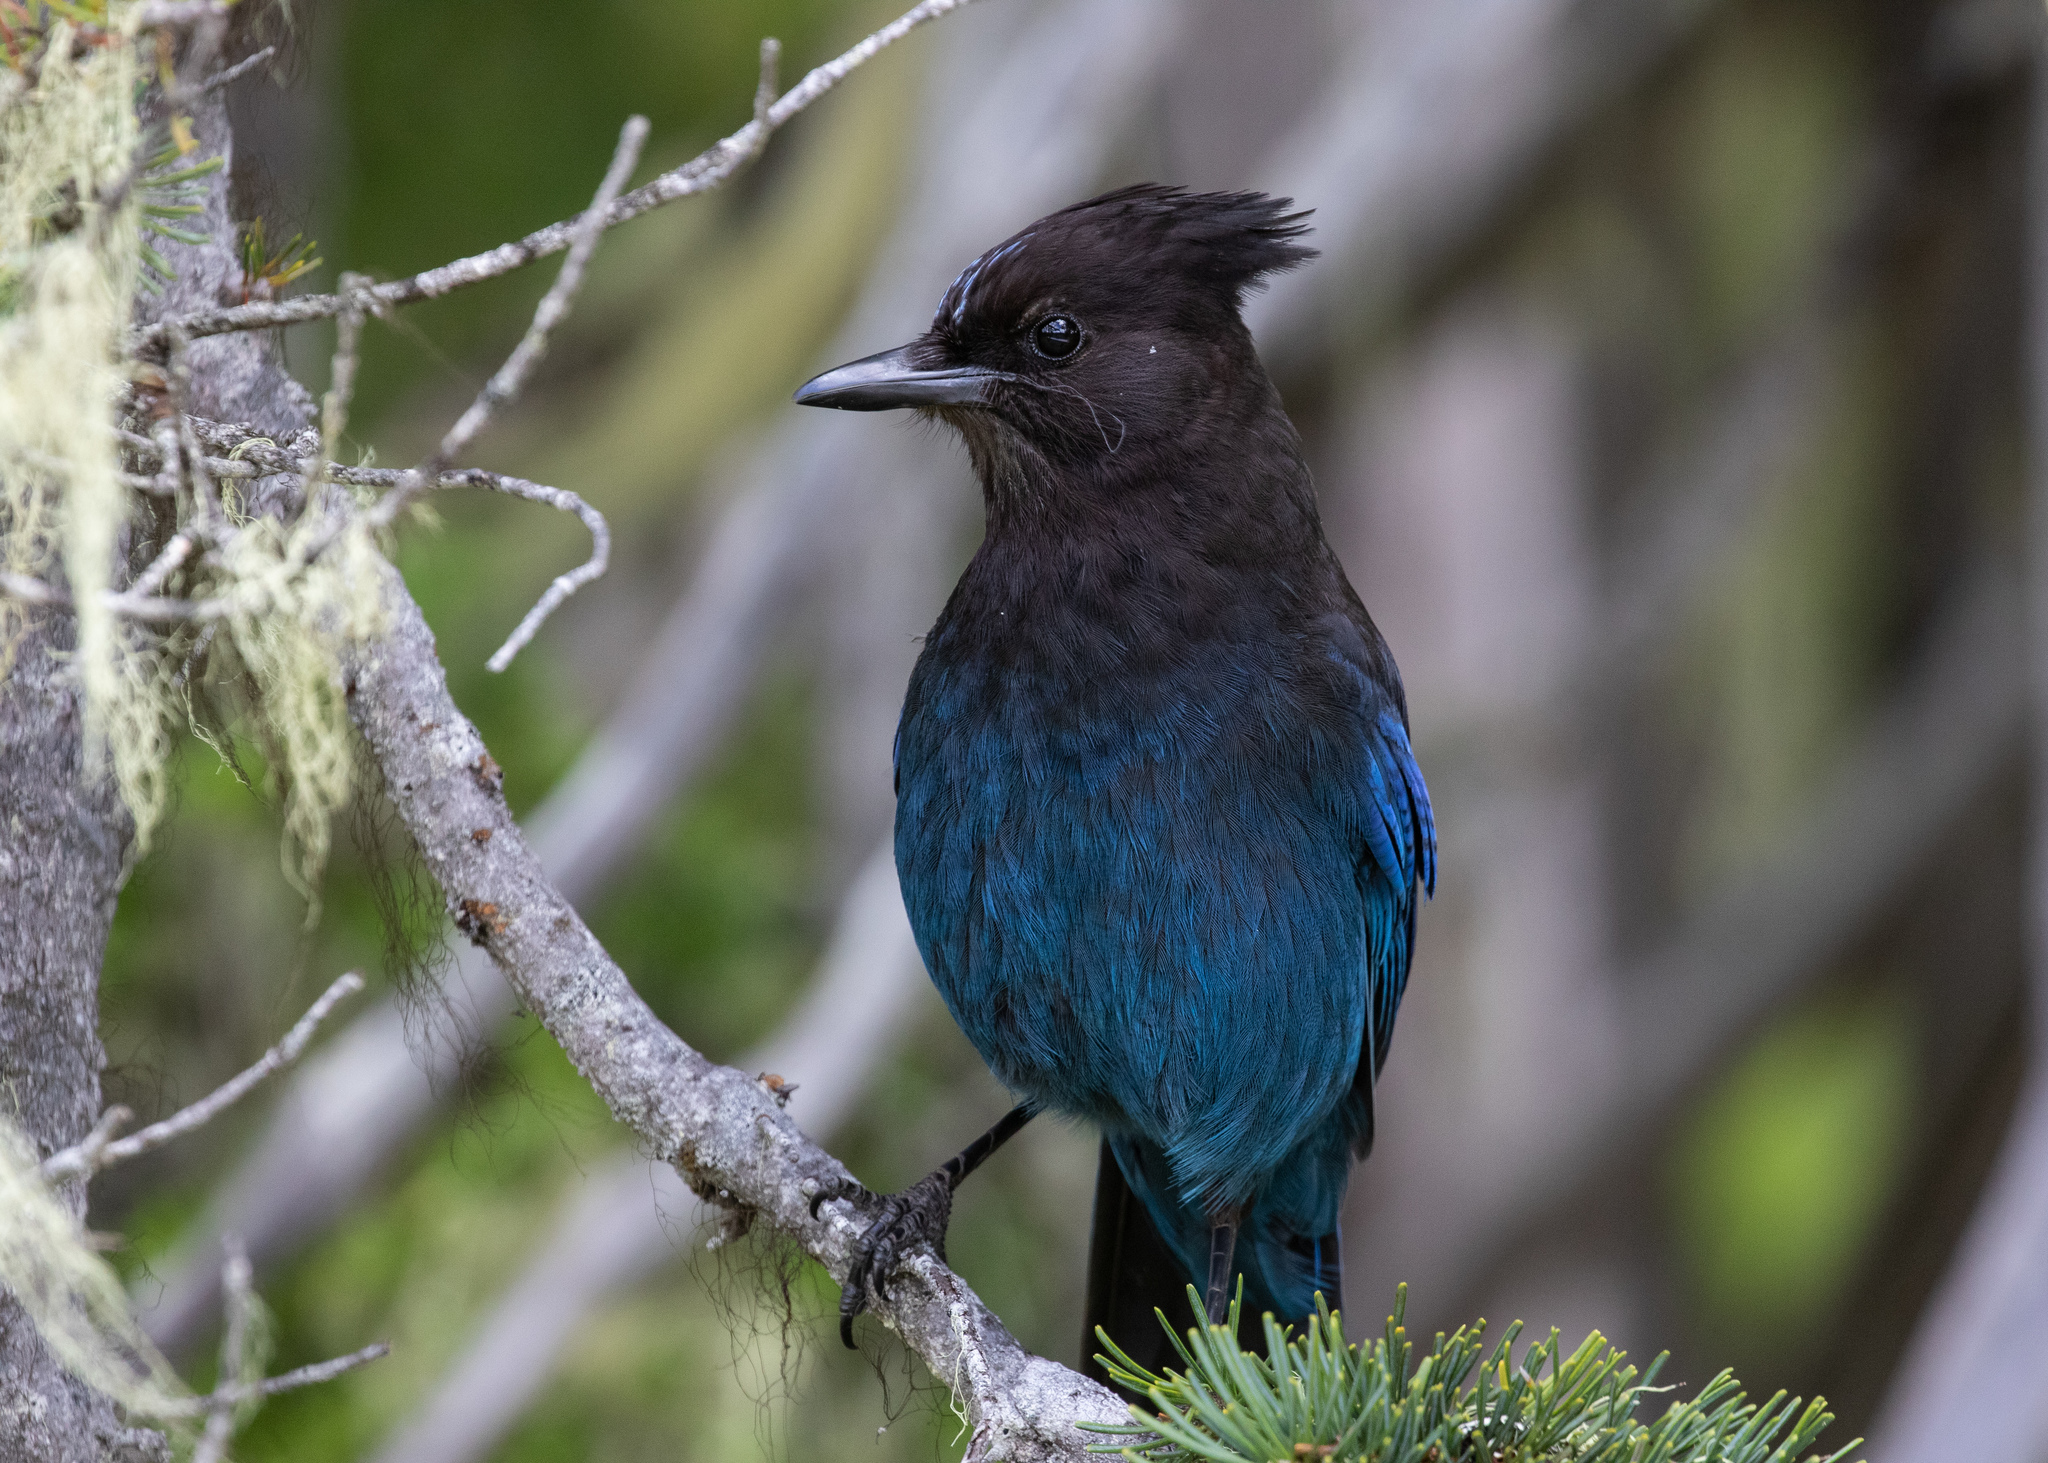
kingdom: Animalia
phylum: Chordata
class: Aves
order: Passeriformes
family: Corvidae
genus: Cyanocitta
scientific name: Cyanocitta stelleri
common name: Steller's jay
